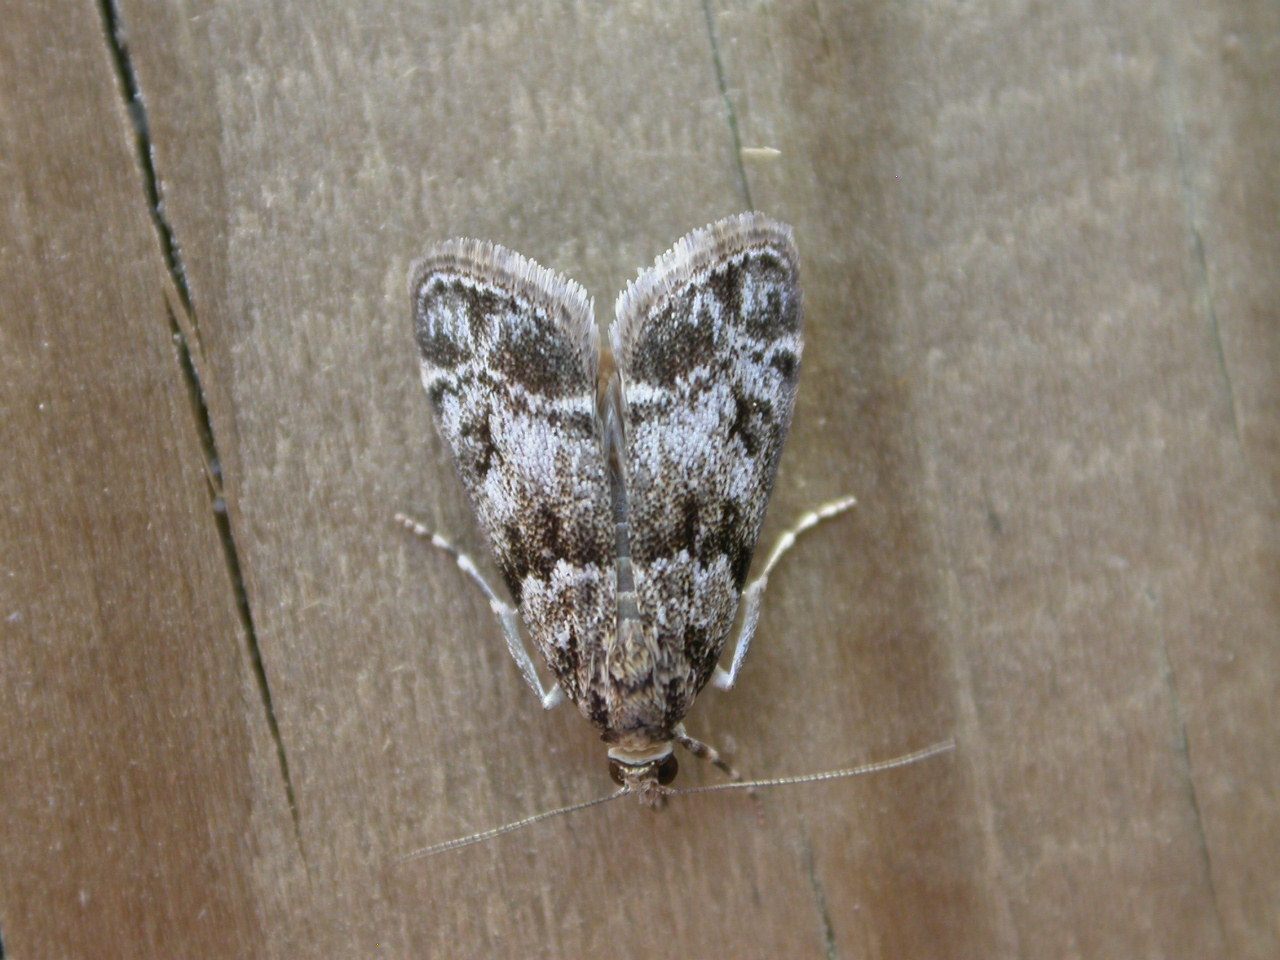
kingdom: Animalia
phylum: Arthropoda
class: Insecta
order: Lepidoptera
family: Crambidae
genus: Eudonia
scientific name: Eudonia mercurella
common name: Small grey
